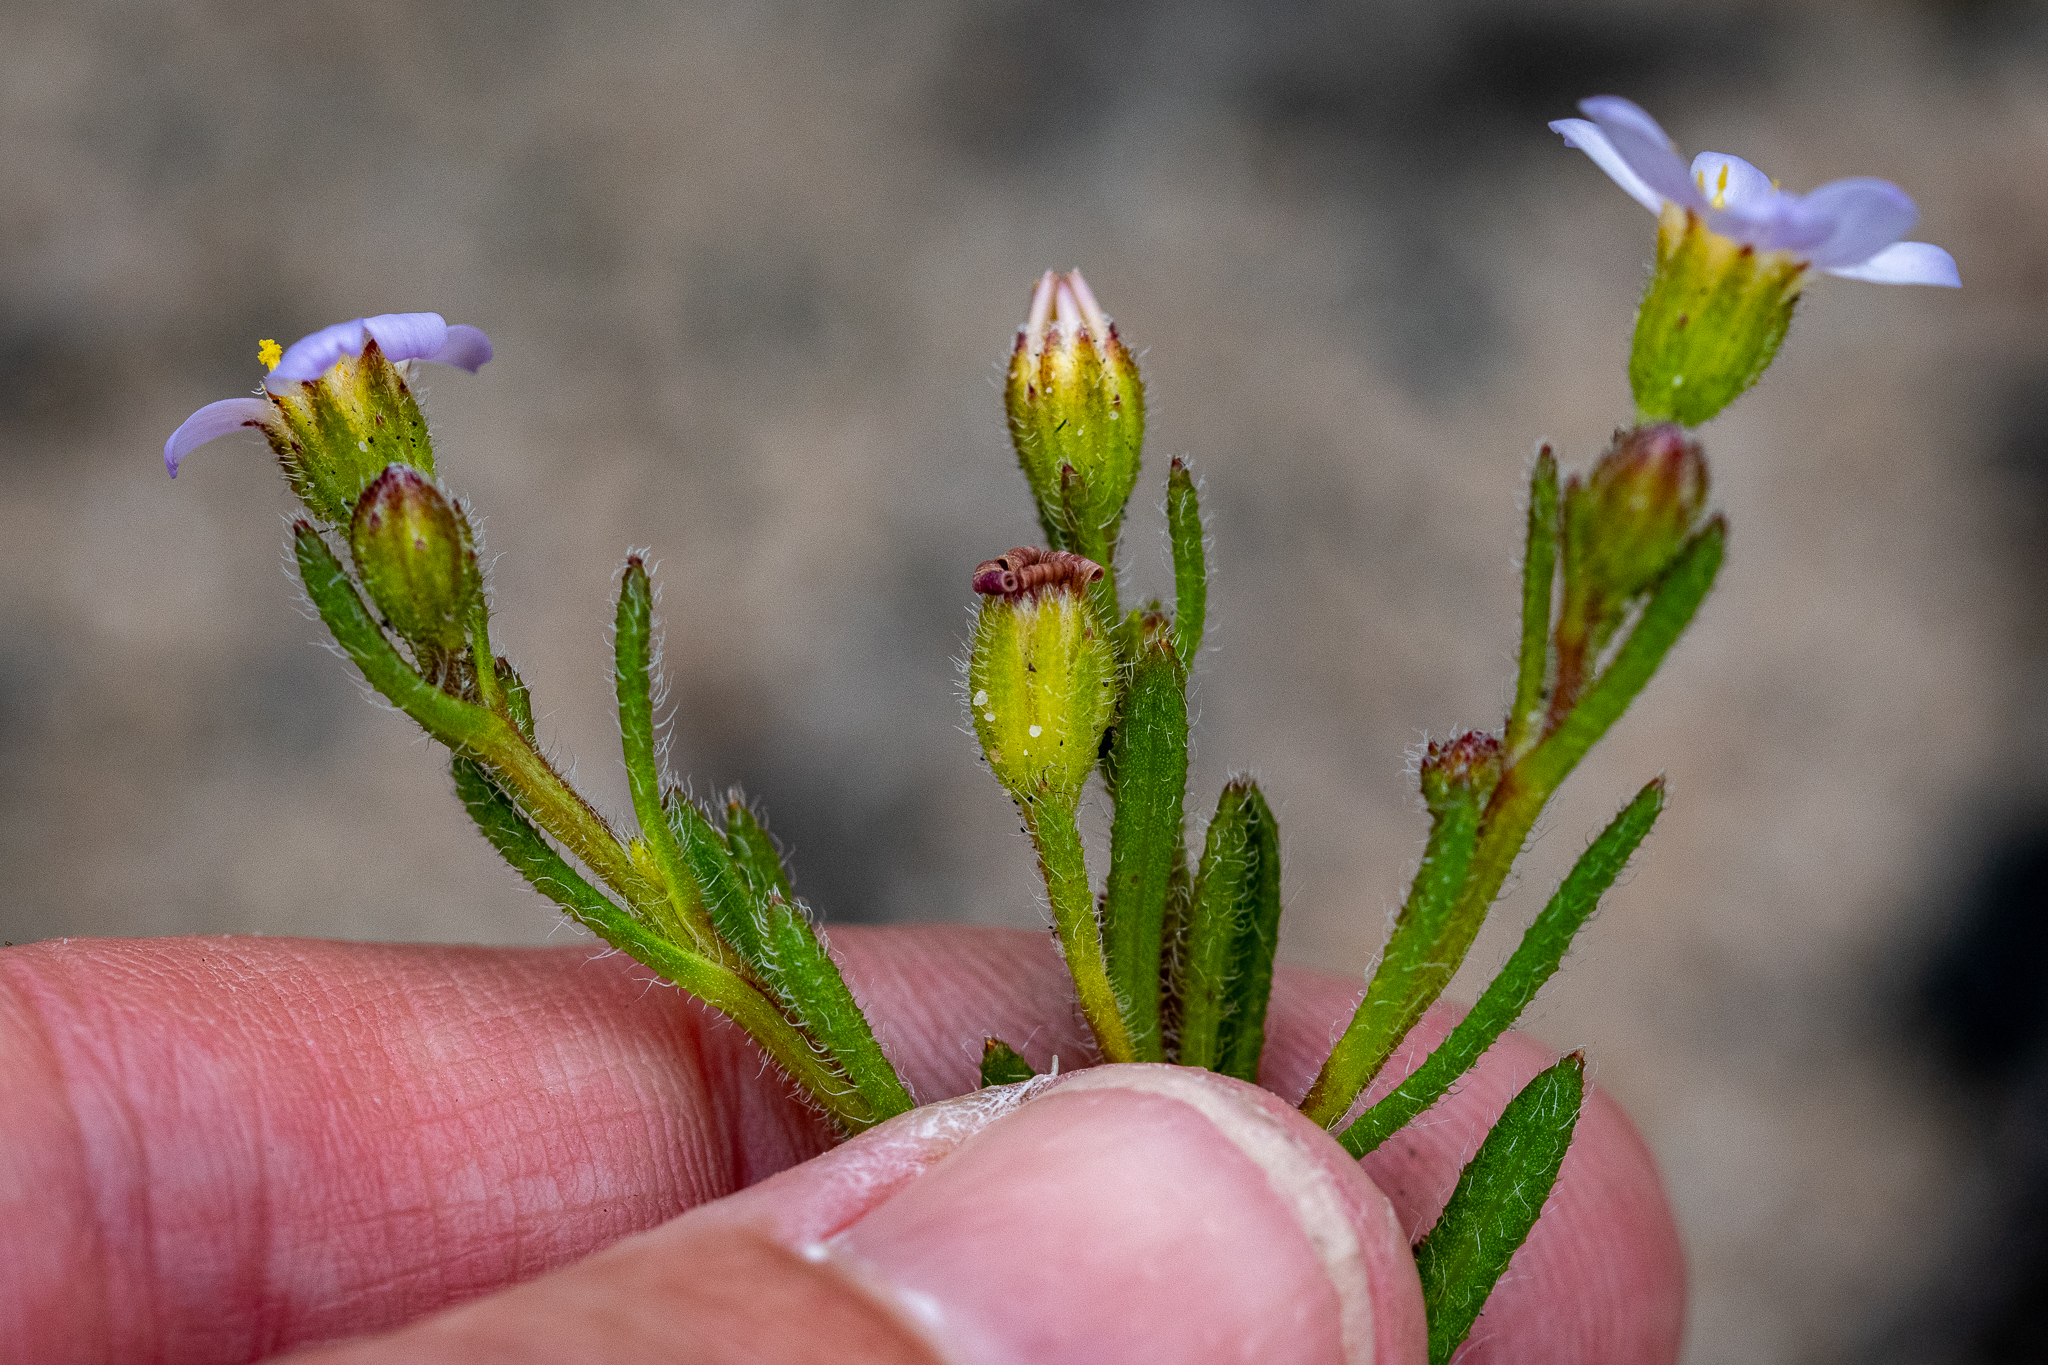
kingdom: Plantae
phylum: Tracheophyta
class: Magnoliopsida
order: Asterales
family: Asteraceae
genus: Zyrphelis
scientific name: Zyrphelis foliosa
